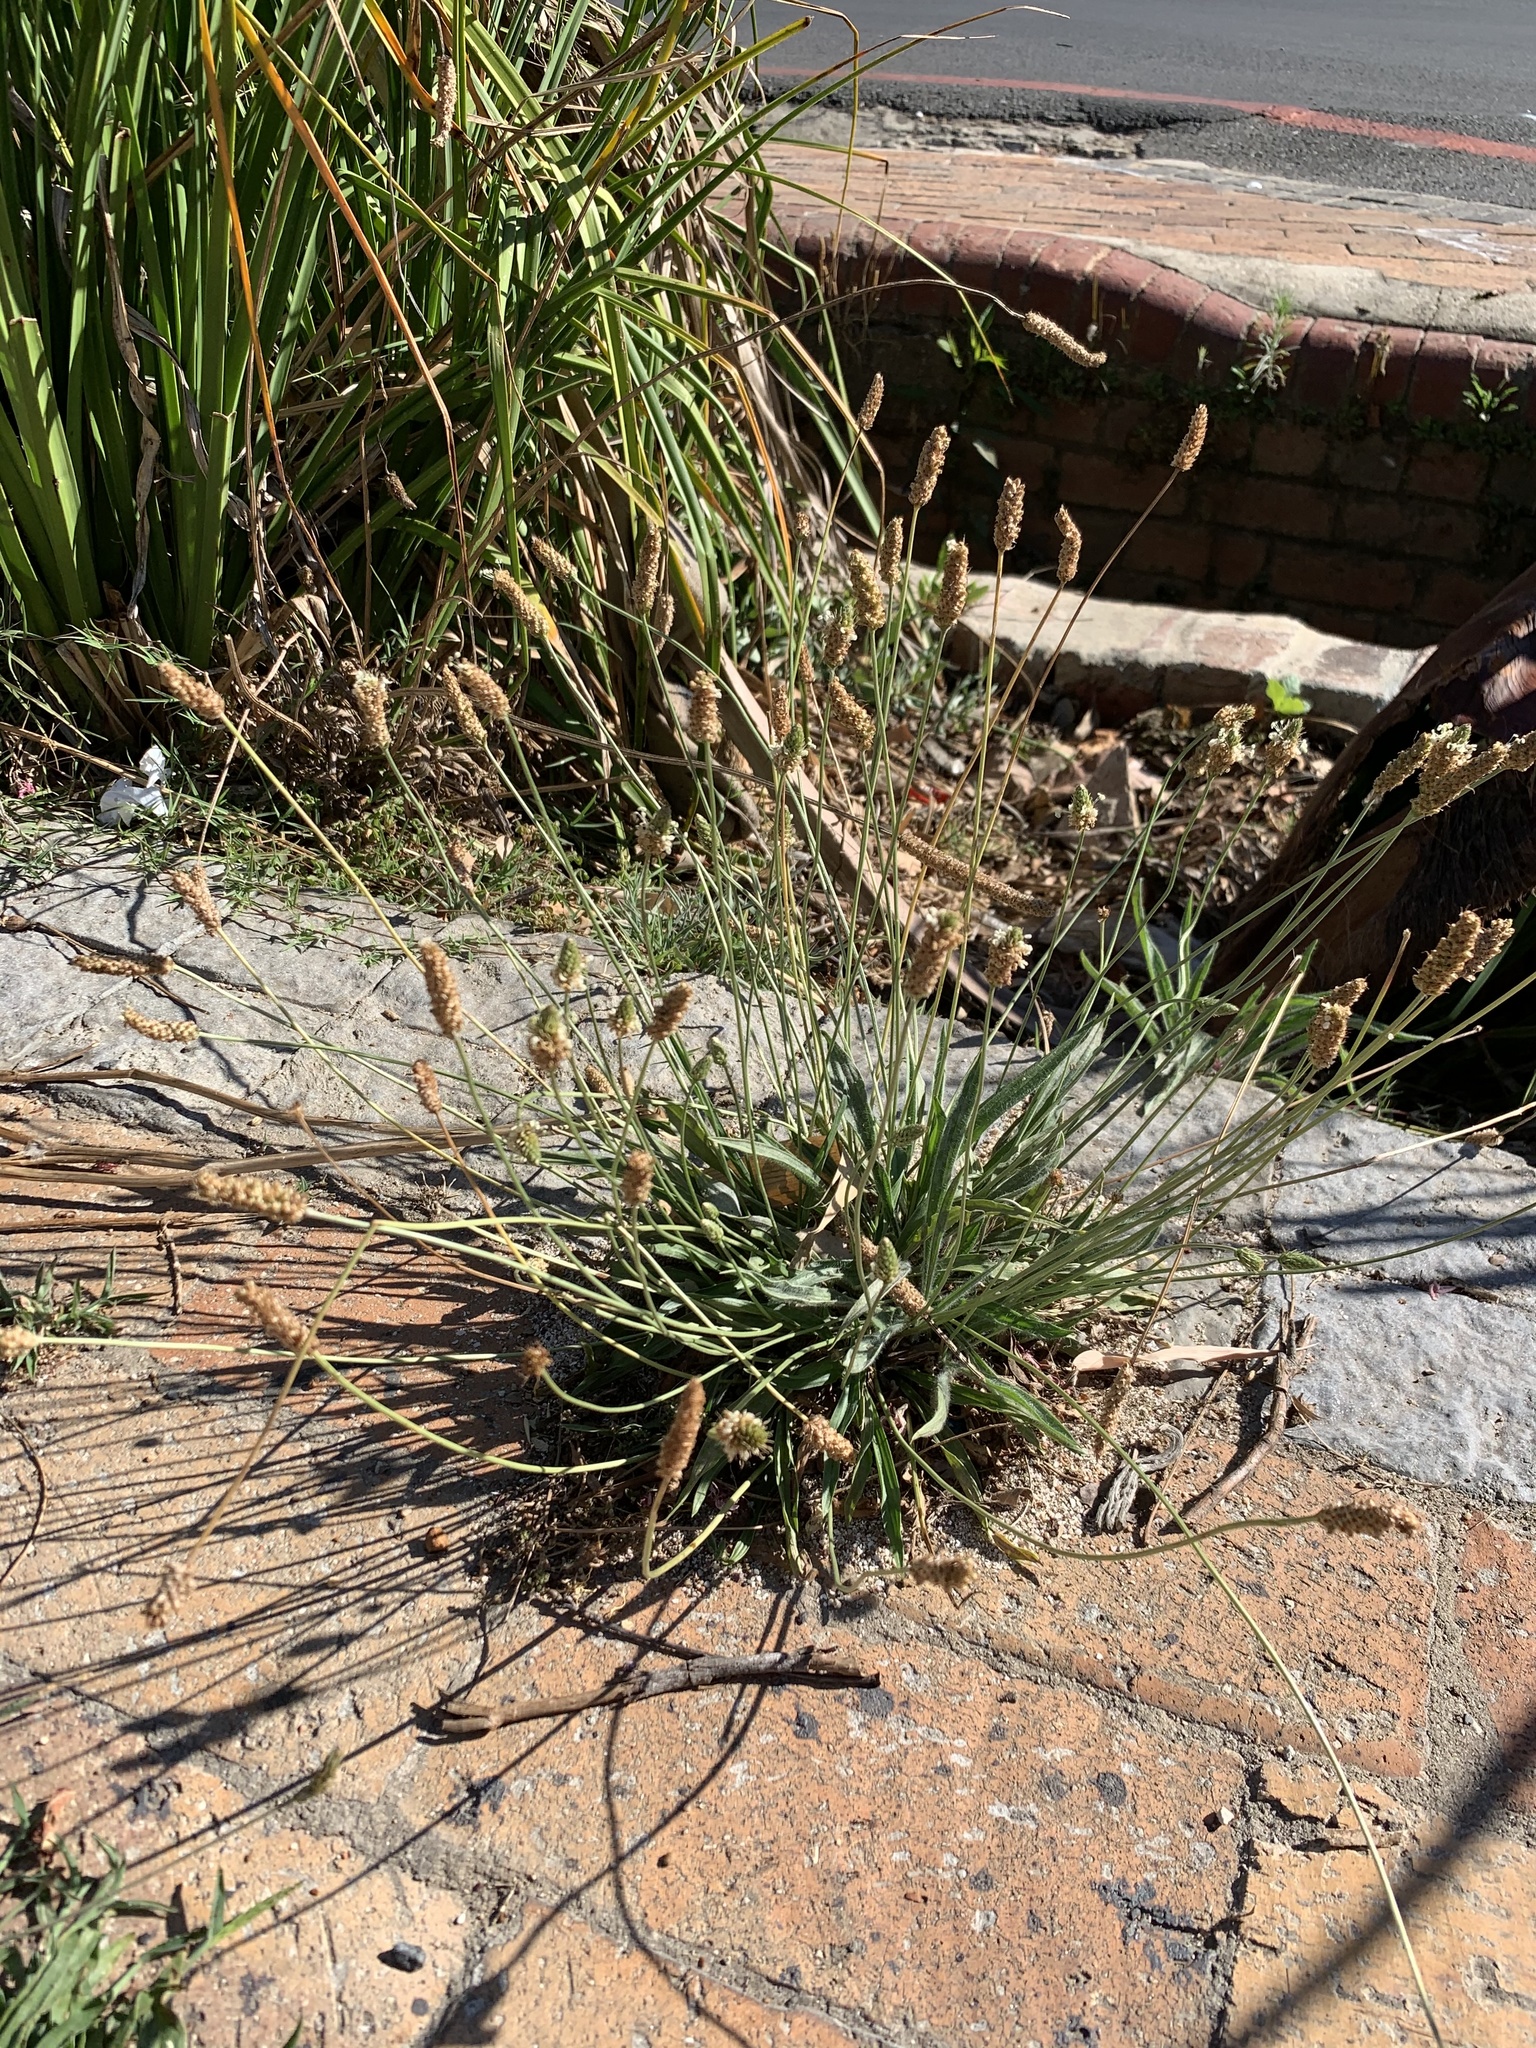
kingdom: Plantae
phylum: Tracheophyta
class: Magnoliopsida
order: Lamiales
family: Plantaginaceae
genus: Plantago
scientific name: Plantago lanceolata
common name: Ribwort plantain
